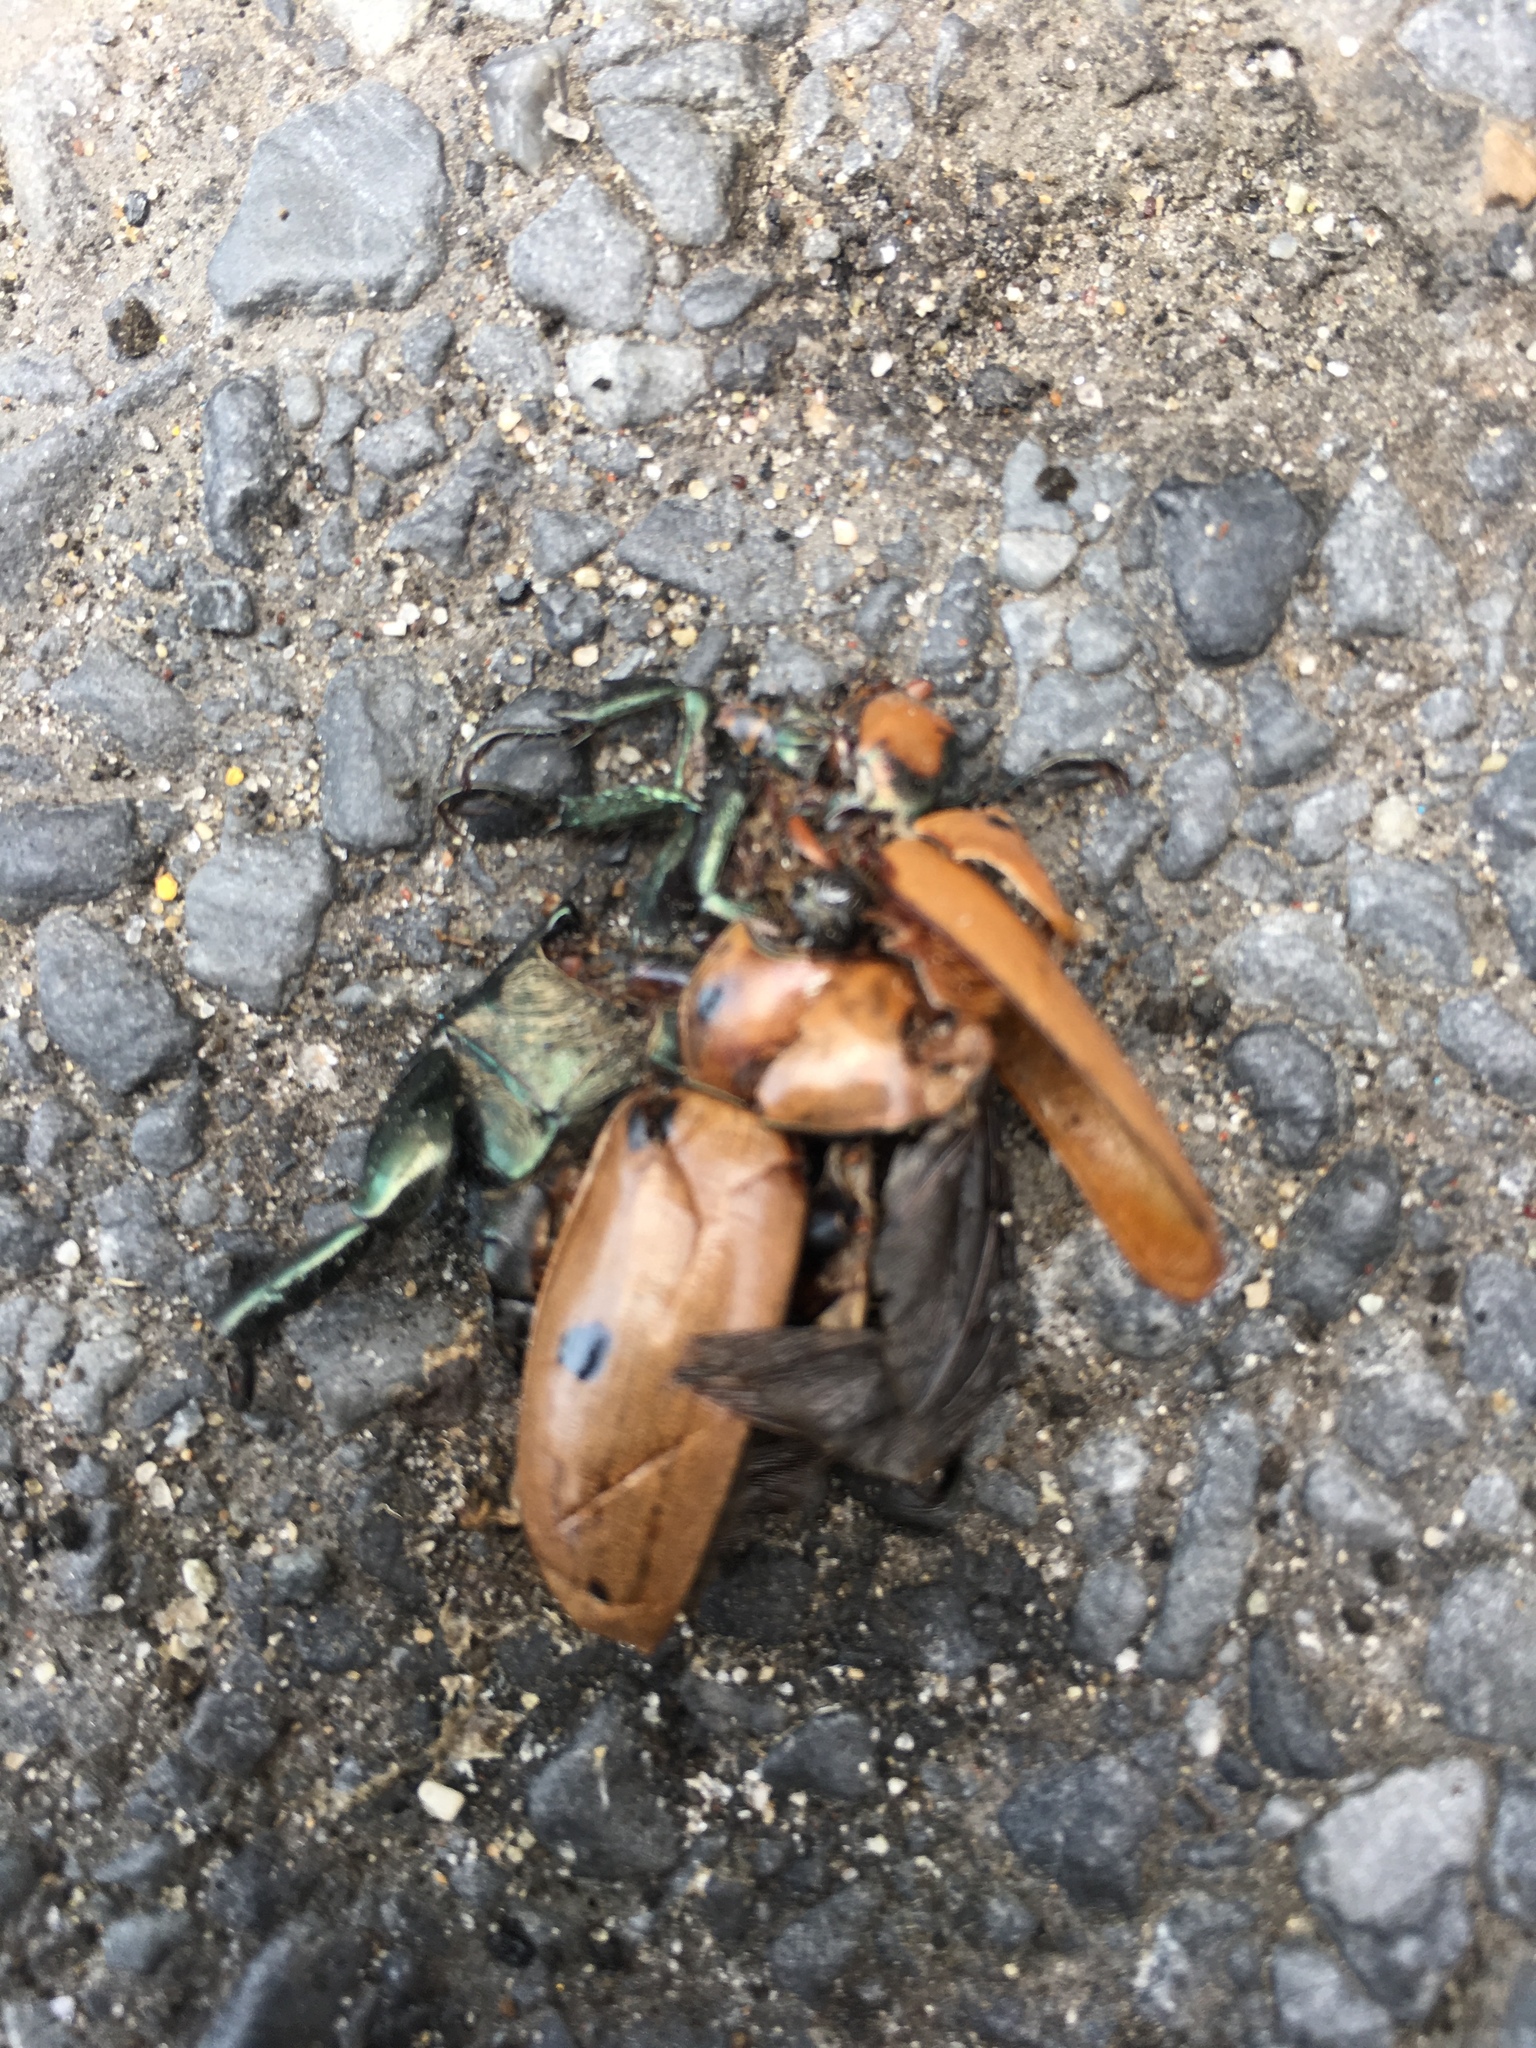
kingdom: Animalia
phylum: Arthropoda
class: Insecta
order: Coleoptera
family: Scarabaeidae
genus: Pelidnota
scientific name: Pelidnota punctata
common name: Grapevine beetle
